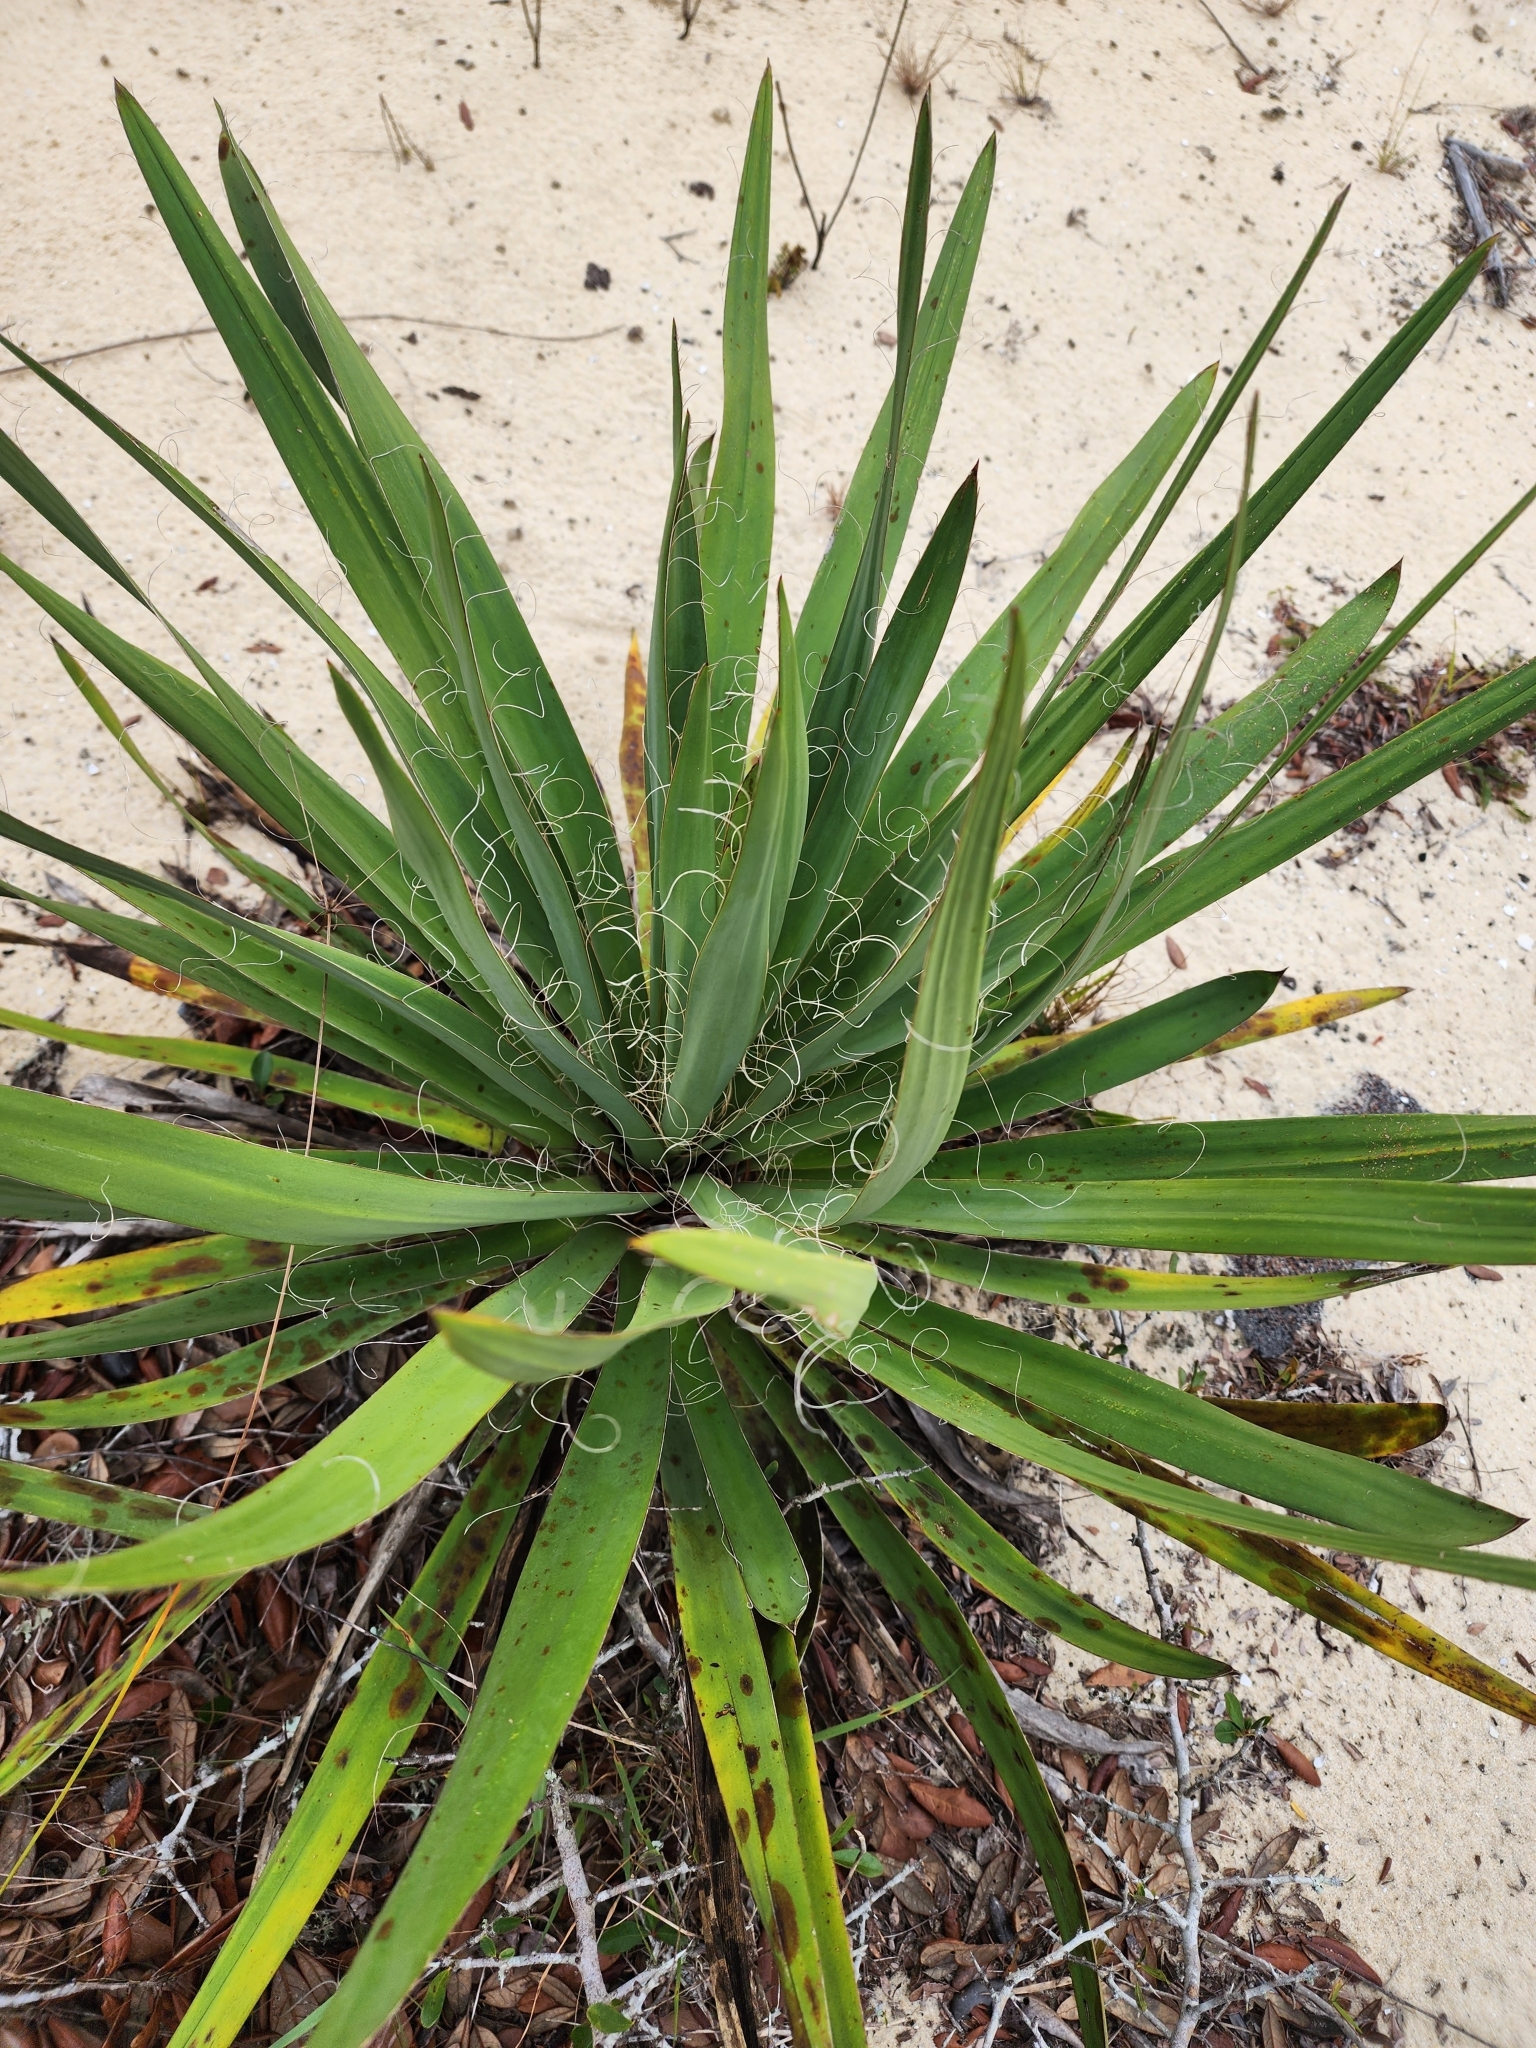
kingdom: Plantae
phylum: Tracheophyta
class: Liliopsida
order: Asparagales
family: Asparagaceae
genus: Yucca
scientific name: Yucca filamentosa
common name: Adam's-needle
